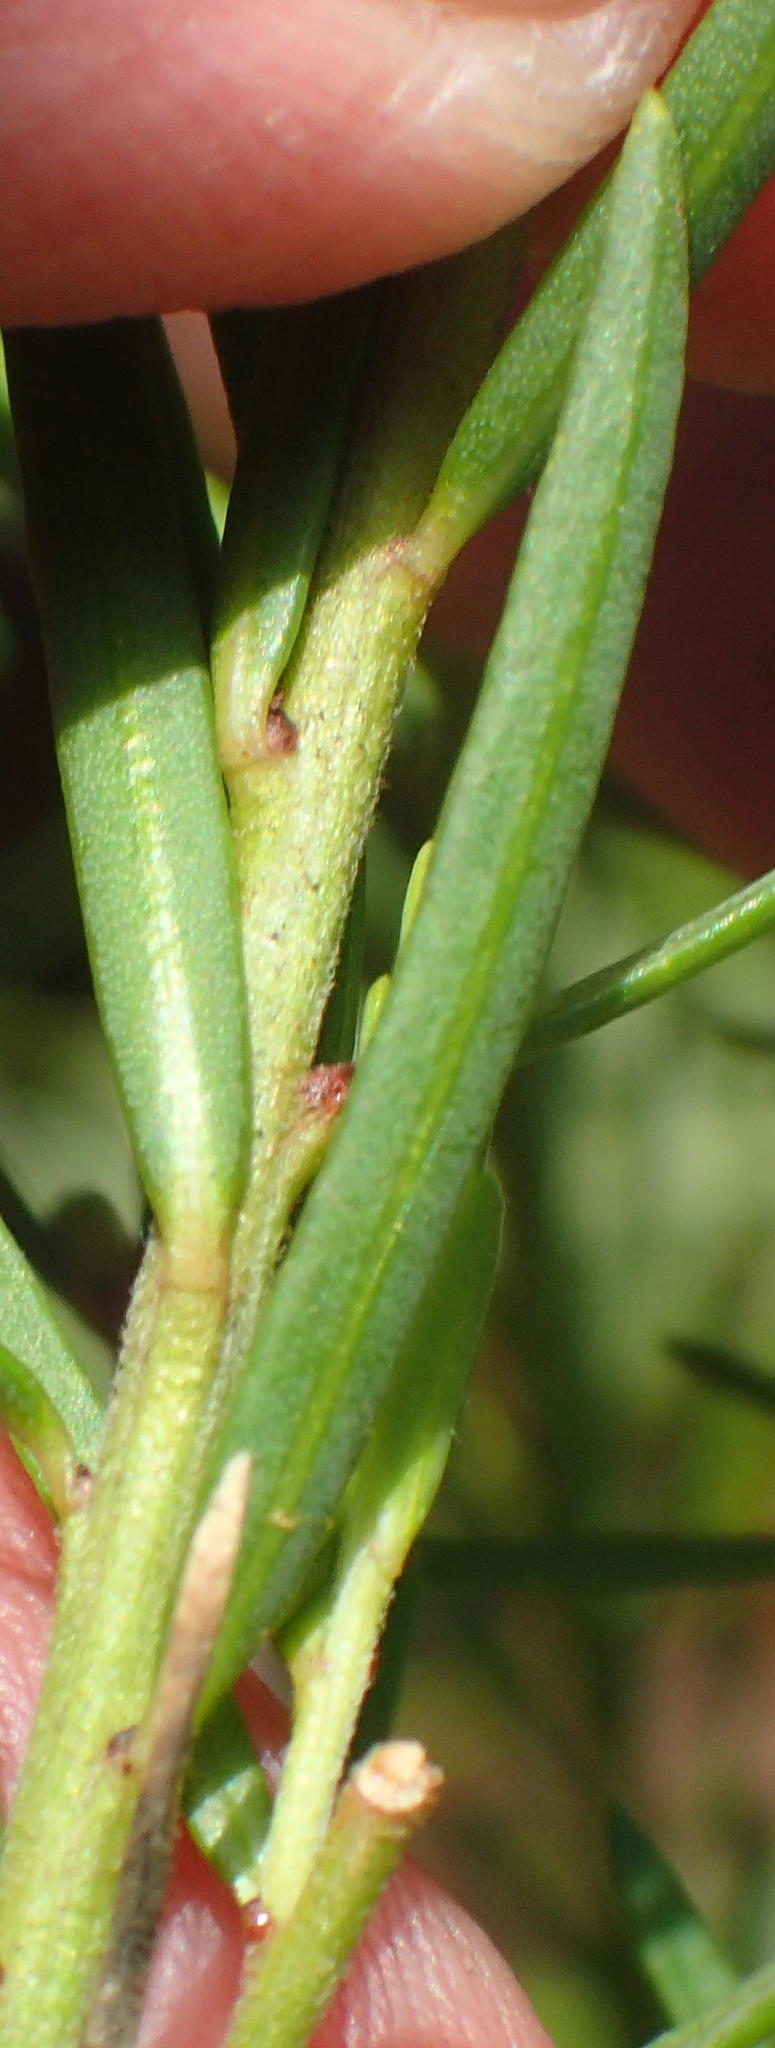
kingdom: Plantae
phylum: Tracheophyta
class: Magnoliopsida
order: Malpighiales
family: Peraceae
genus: Clutia
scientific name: Clutia ericoides
